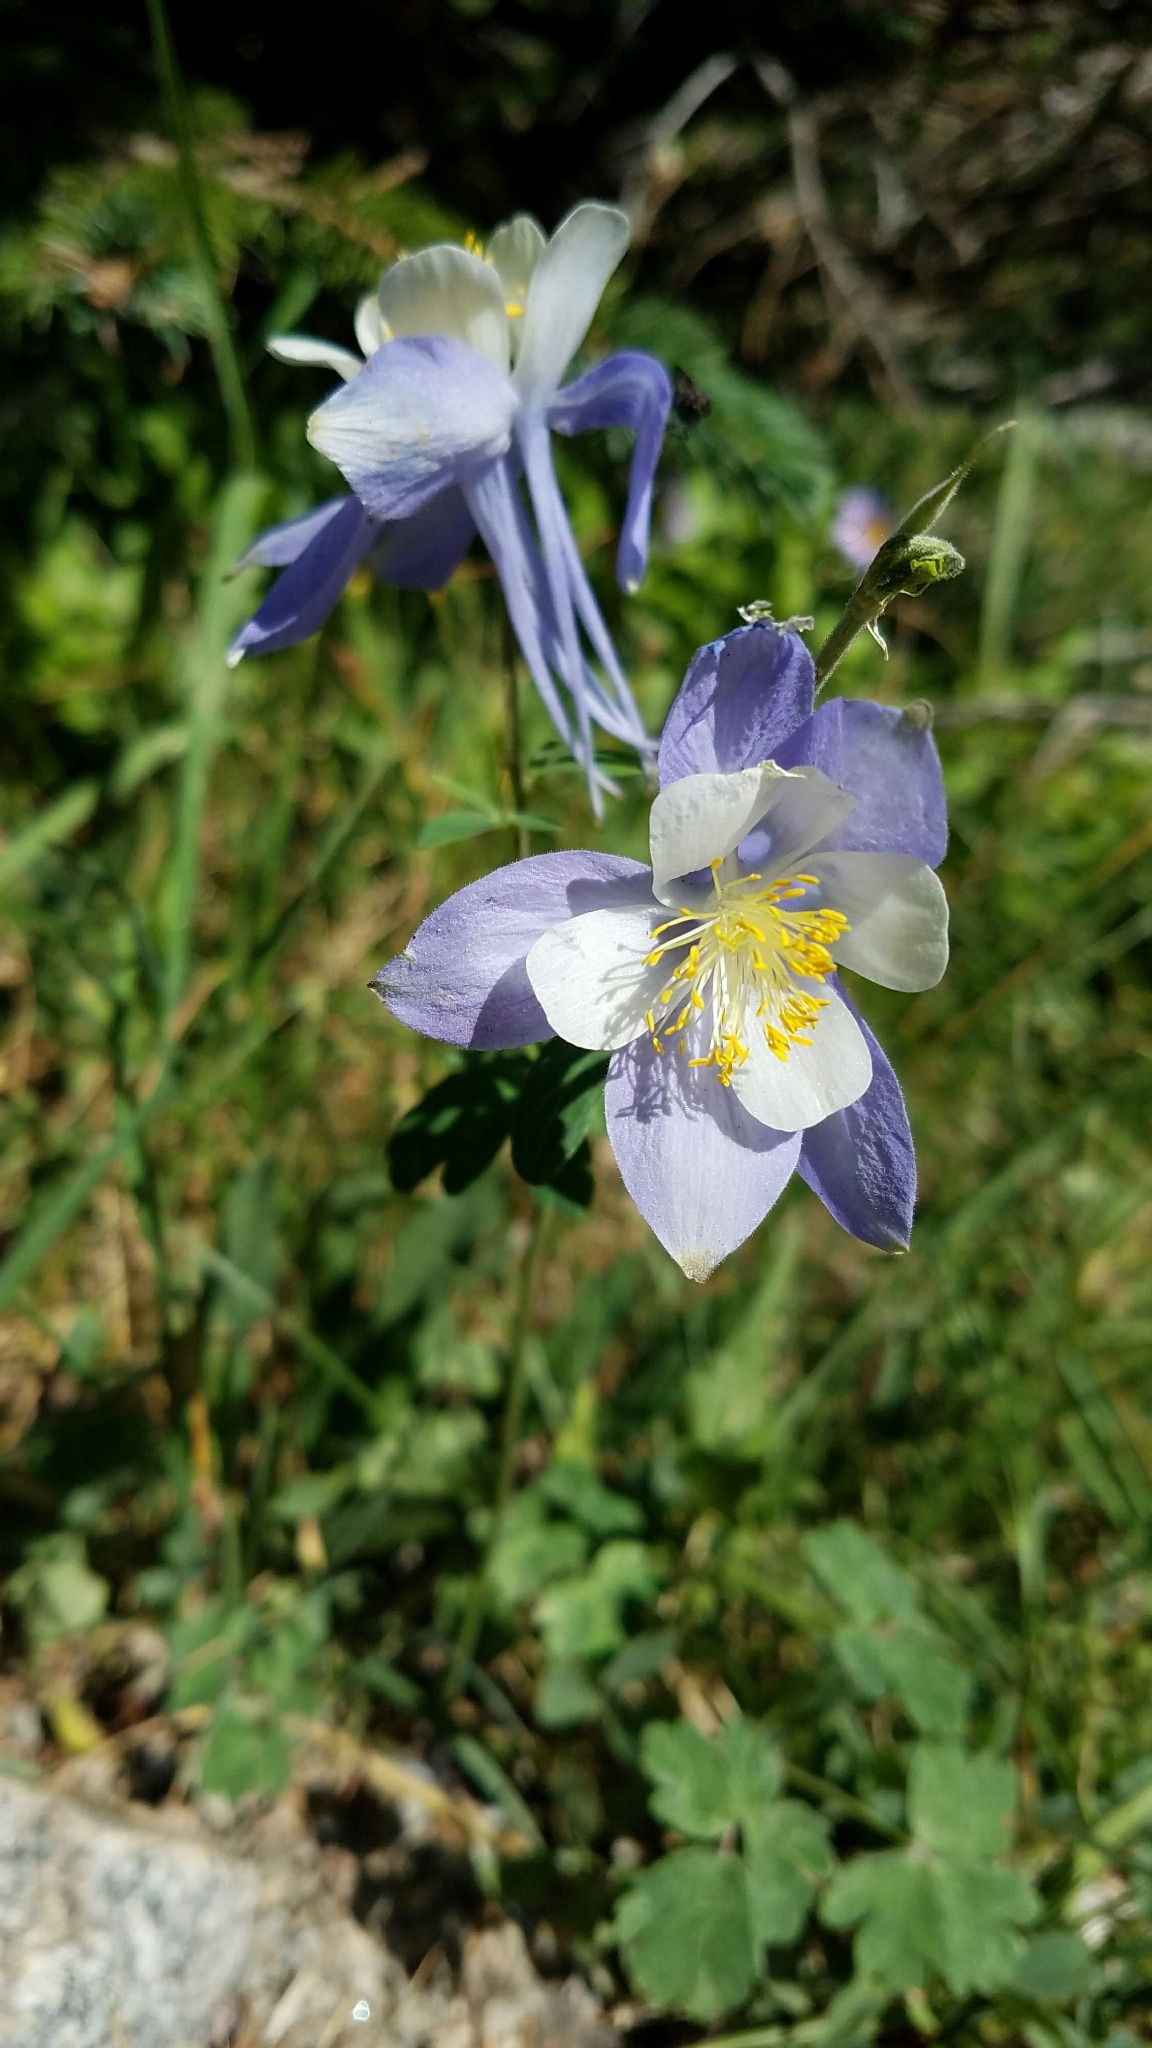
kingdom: Plantae
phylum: Tracheophyta
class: Magnoliopsida
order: Ranunculales
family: Ranunculaceae
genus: Aquilegia
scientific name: Aquilegia coerulea
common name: Rocky mountain columbine
